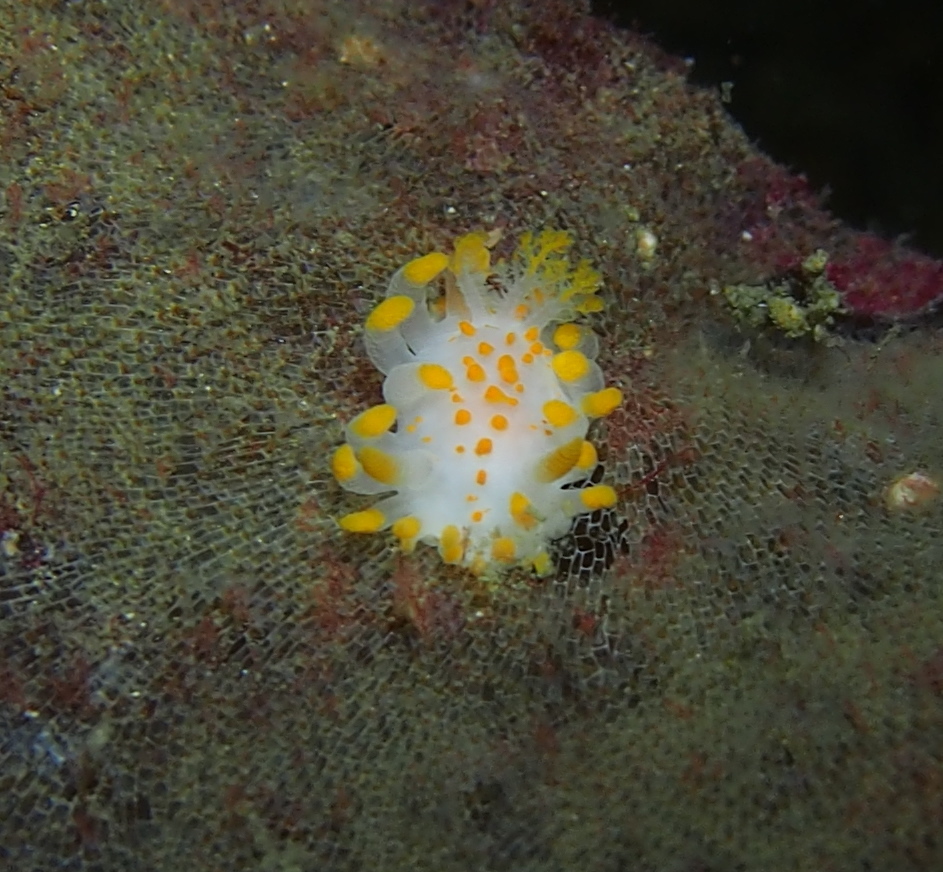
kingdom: Animalia
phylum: Mollusca
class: Gastropoda
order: Nudibranchia
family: Polyceridae
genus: Limacia
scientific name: Limacia clavigera
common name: Orange-clubbed sea slug
